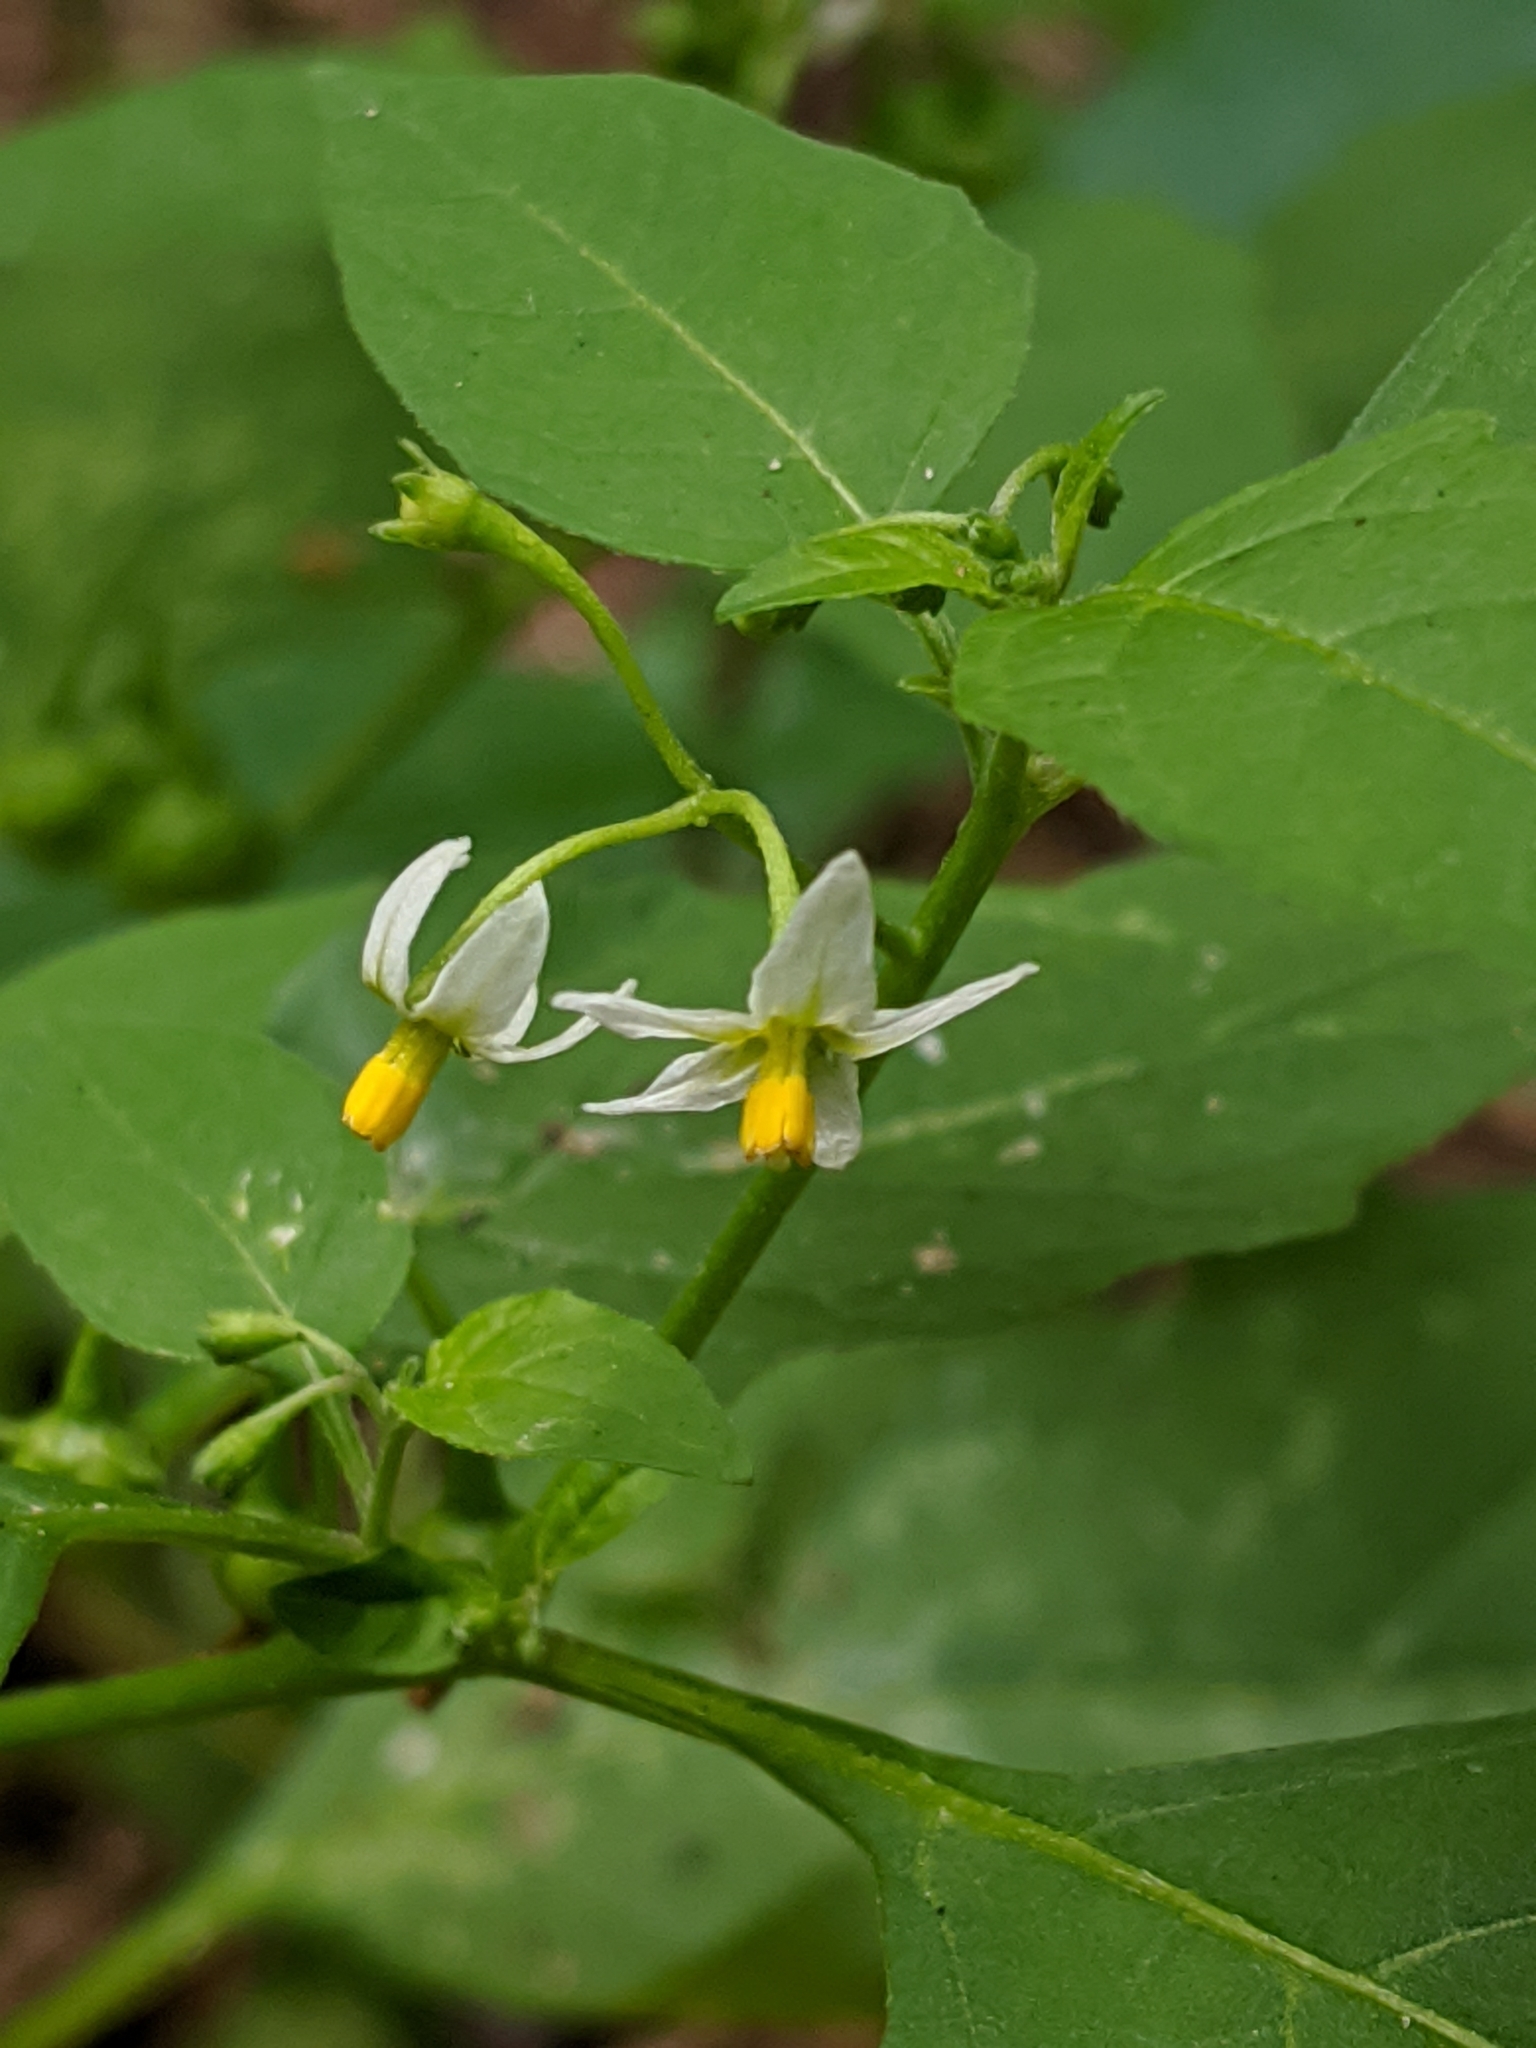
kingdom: Plantae
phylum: Tracheophyta
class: Magnoliopsida
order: Solanales
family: Solanaceae
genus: Solanum
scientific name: Solanum emulans
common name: Eastern black nightshade
